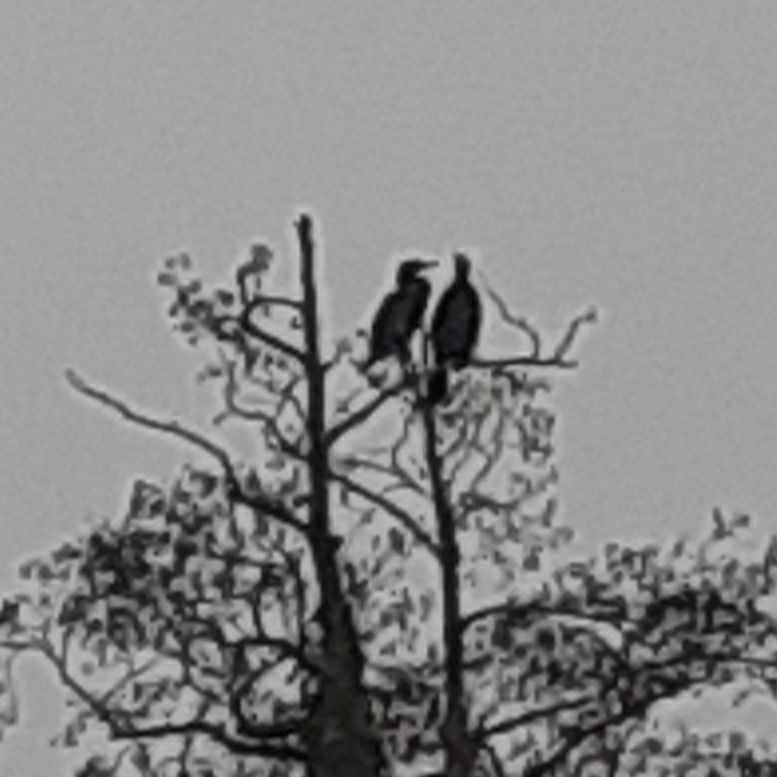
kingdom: Animalia
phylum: Chordata
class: Aves
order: Suliformes
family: Phalacrocoracidae
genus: Phalacrocorax
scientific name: Phalacrocorax carbo
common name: Great cormorant
